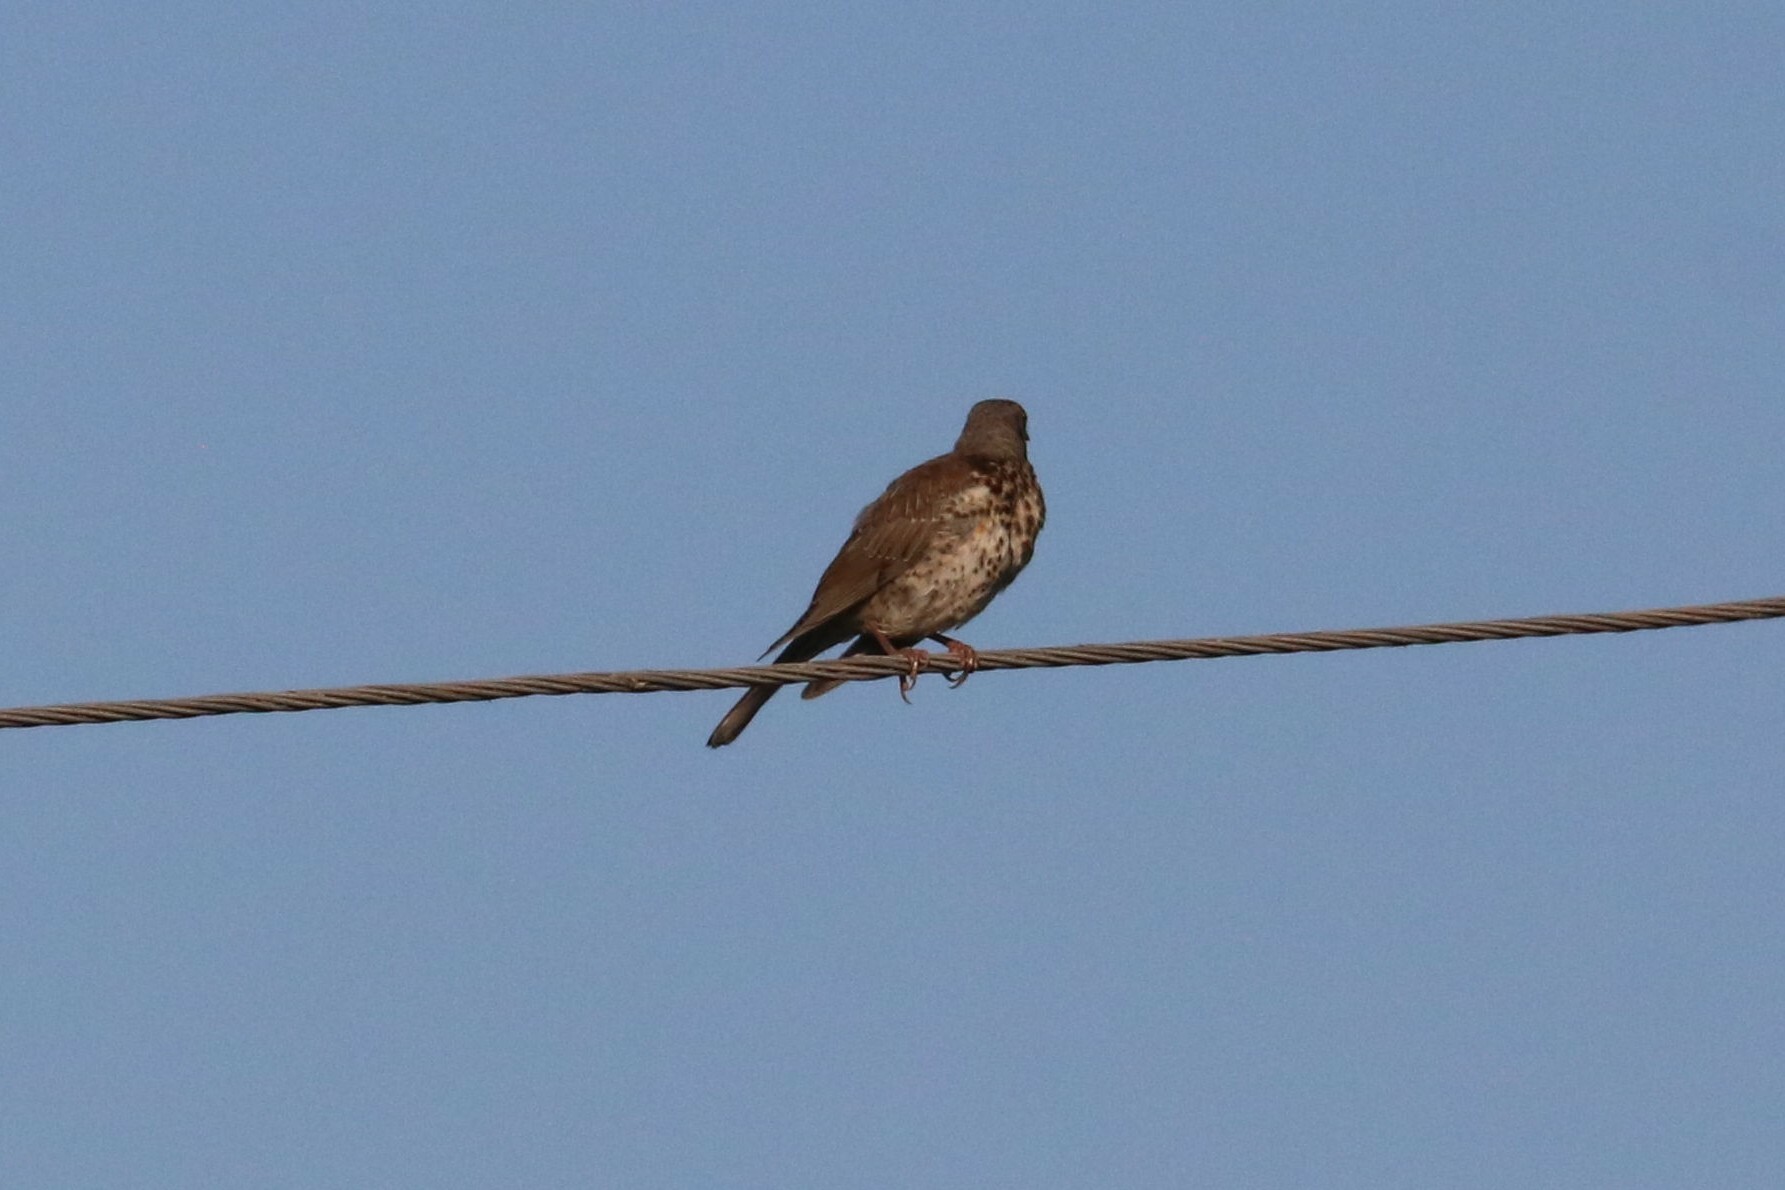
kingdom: Animalia
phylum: Chordata
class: Aves
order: Passeriformes
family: Turdidae
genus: Turdus
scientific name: Turdus pilaris
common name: Fieldfare
